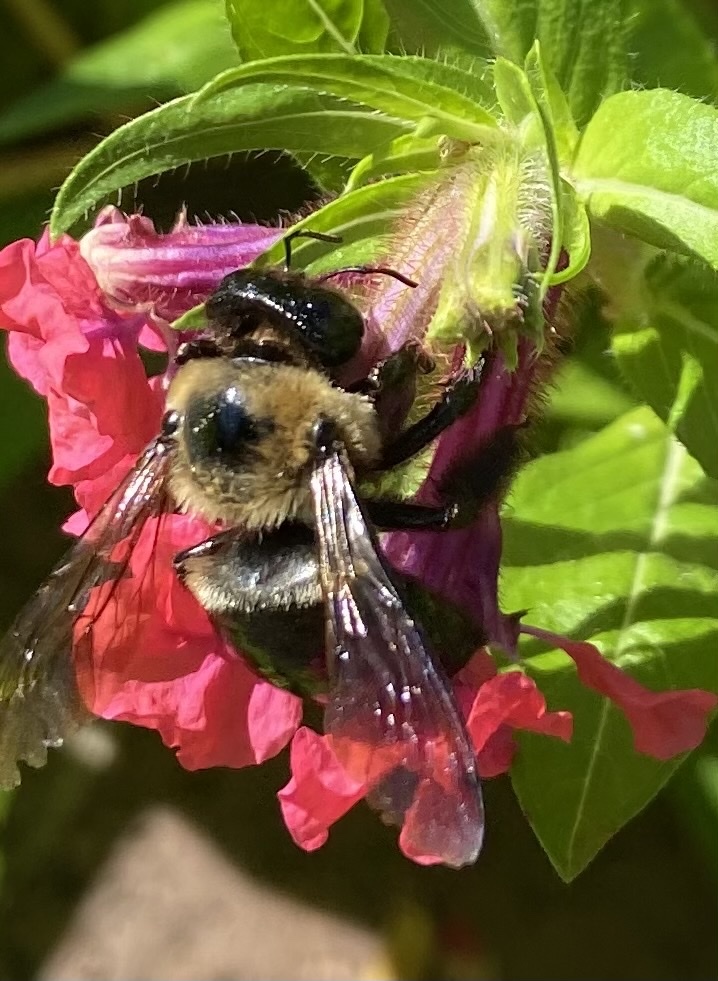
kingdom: Animalia
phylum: Arthropoda
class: Insecta
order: Hymenoptera
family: Apidae
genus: Xylocopa
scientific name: Xylocopa virginica
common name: Carpenter bee
